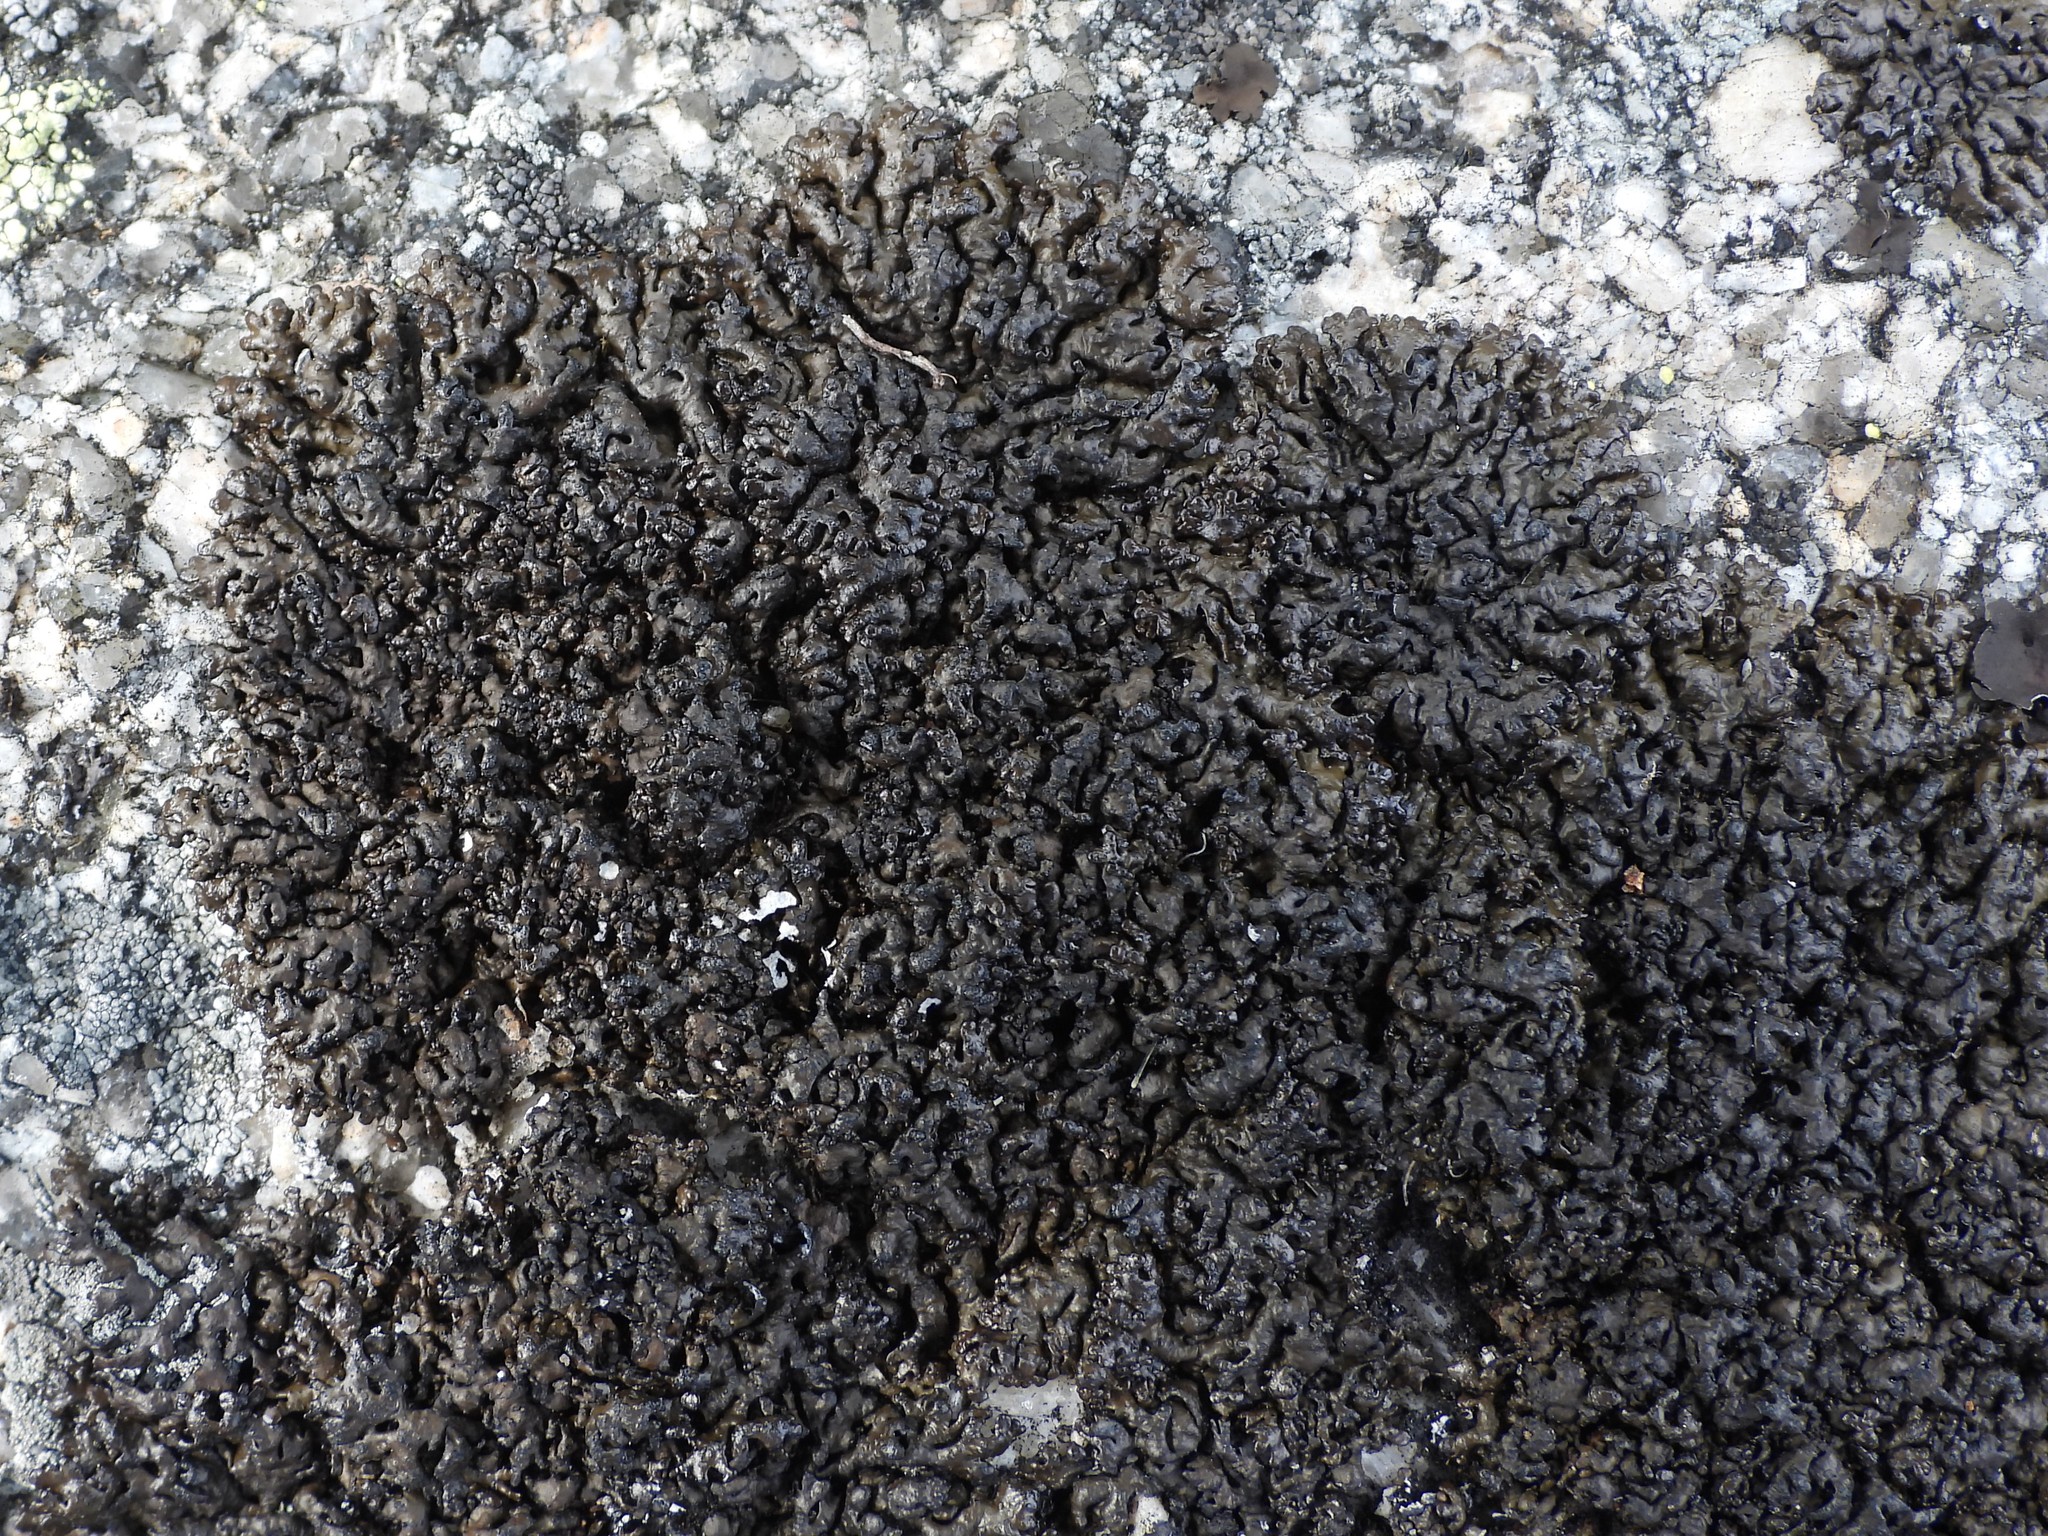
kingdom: Fungi
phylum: Ascomycota
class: Lecanoromycetes
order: Lecanorales
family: Parmeliaceae
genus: Melanelia
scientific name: Melanelia stygia
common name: Alpine camouflage lichen
